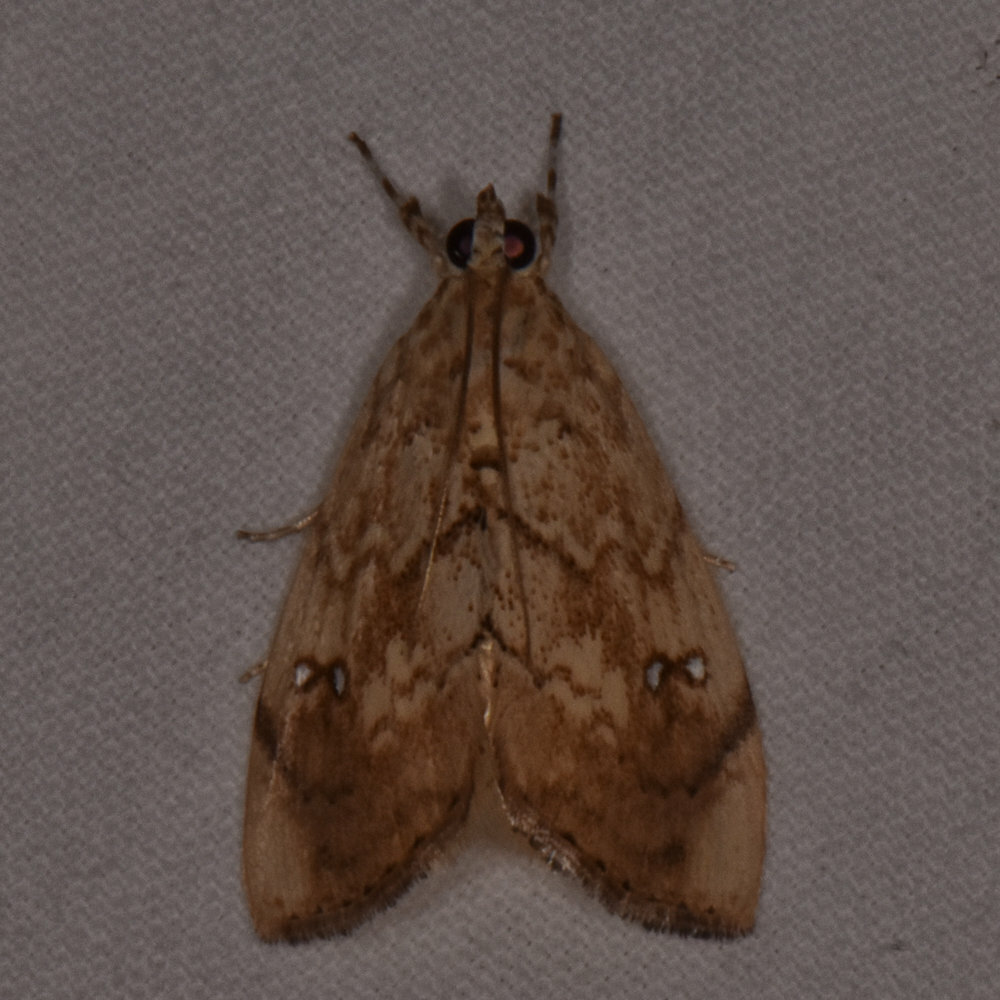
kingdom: Animalia
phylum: Arthropoda
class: Insecta
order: Lepidoptera
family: Crambidae
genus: Crocidolomia
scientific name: Crocidolomia pavonana
